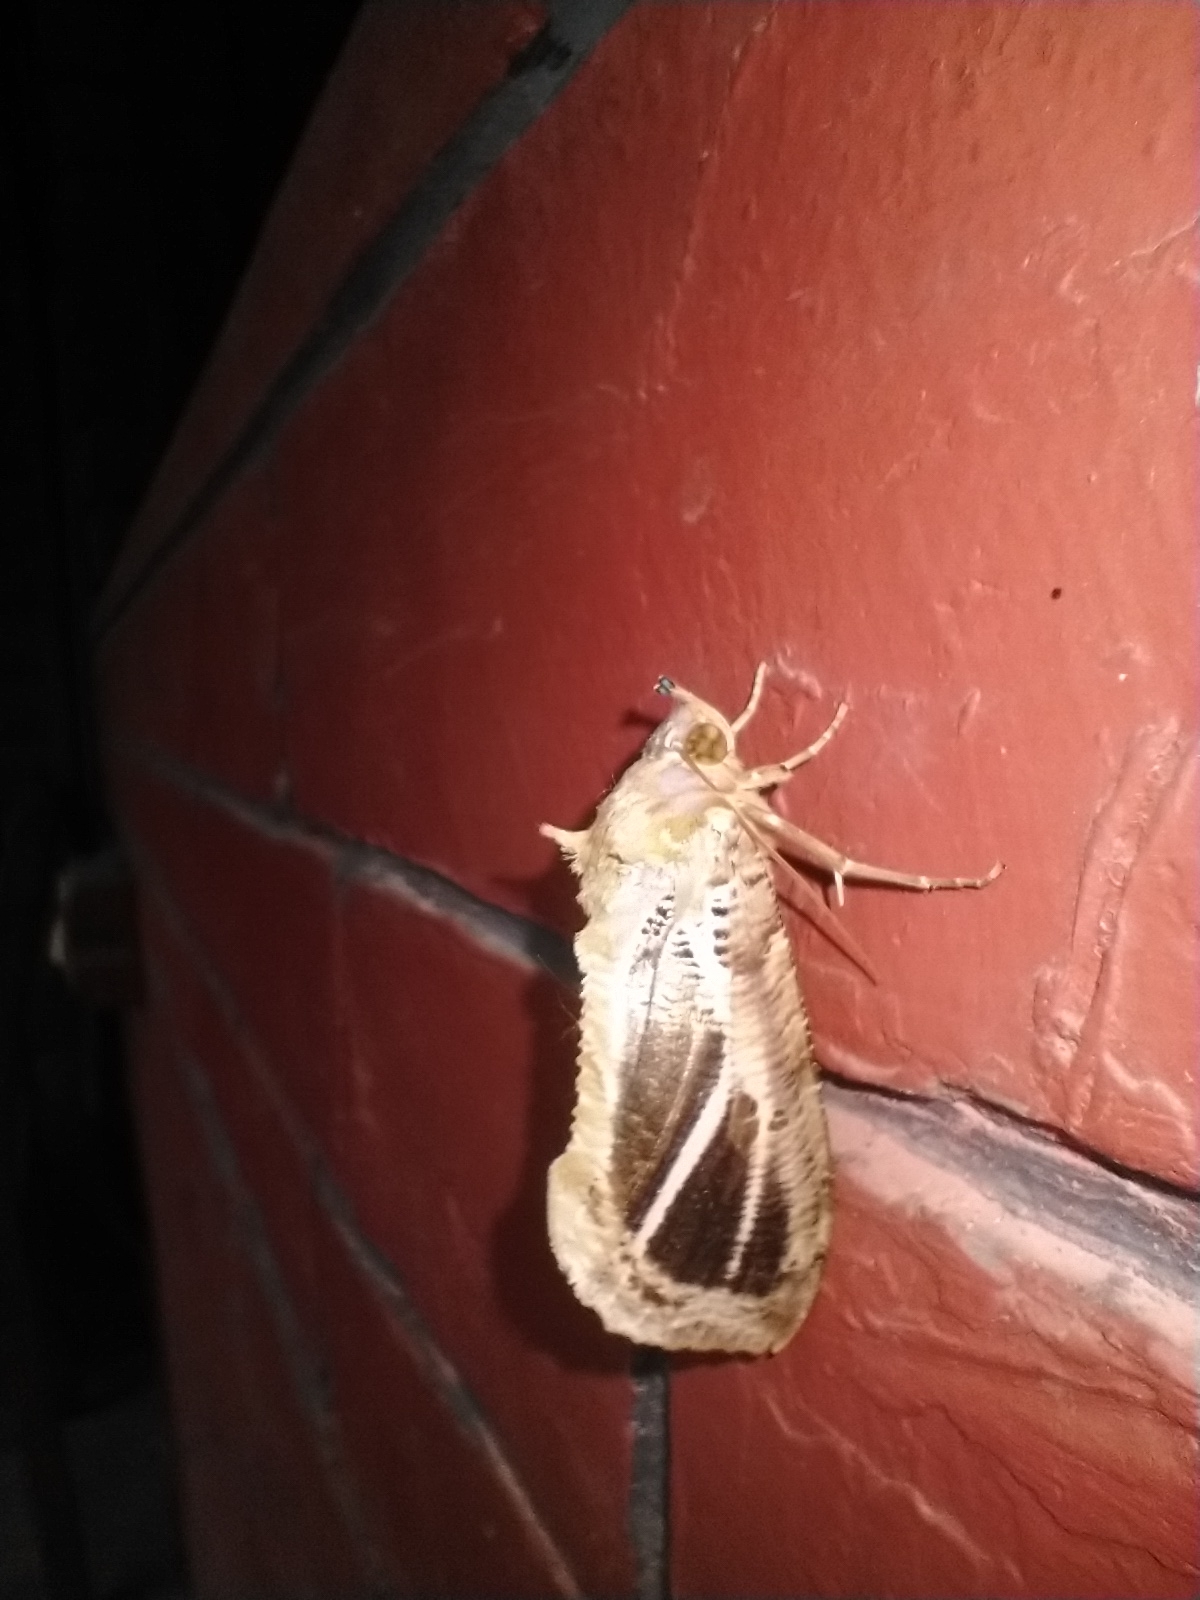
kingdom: Animalia
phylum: Arthropoda
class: Insecta
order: Lepidoptera
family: Erebidae
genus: Eudocima
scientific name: Eudocima materna
